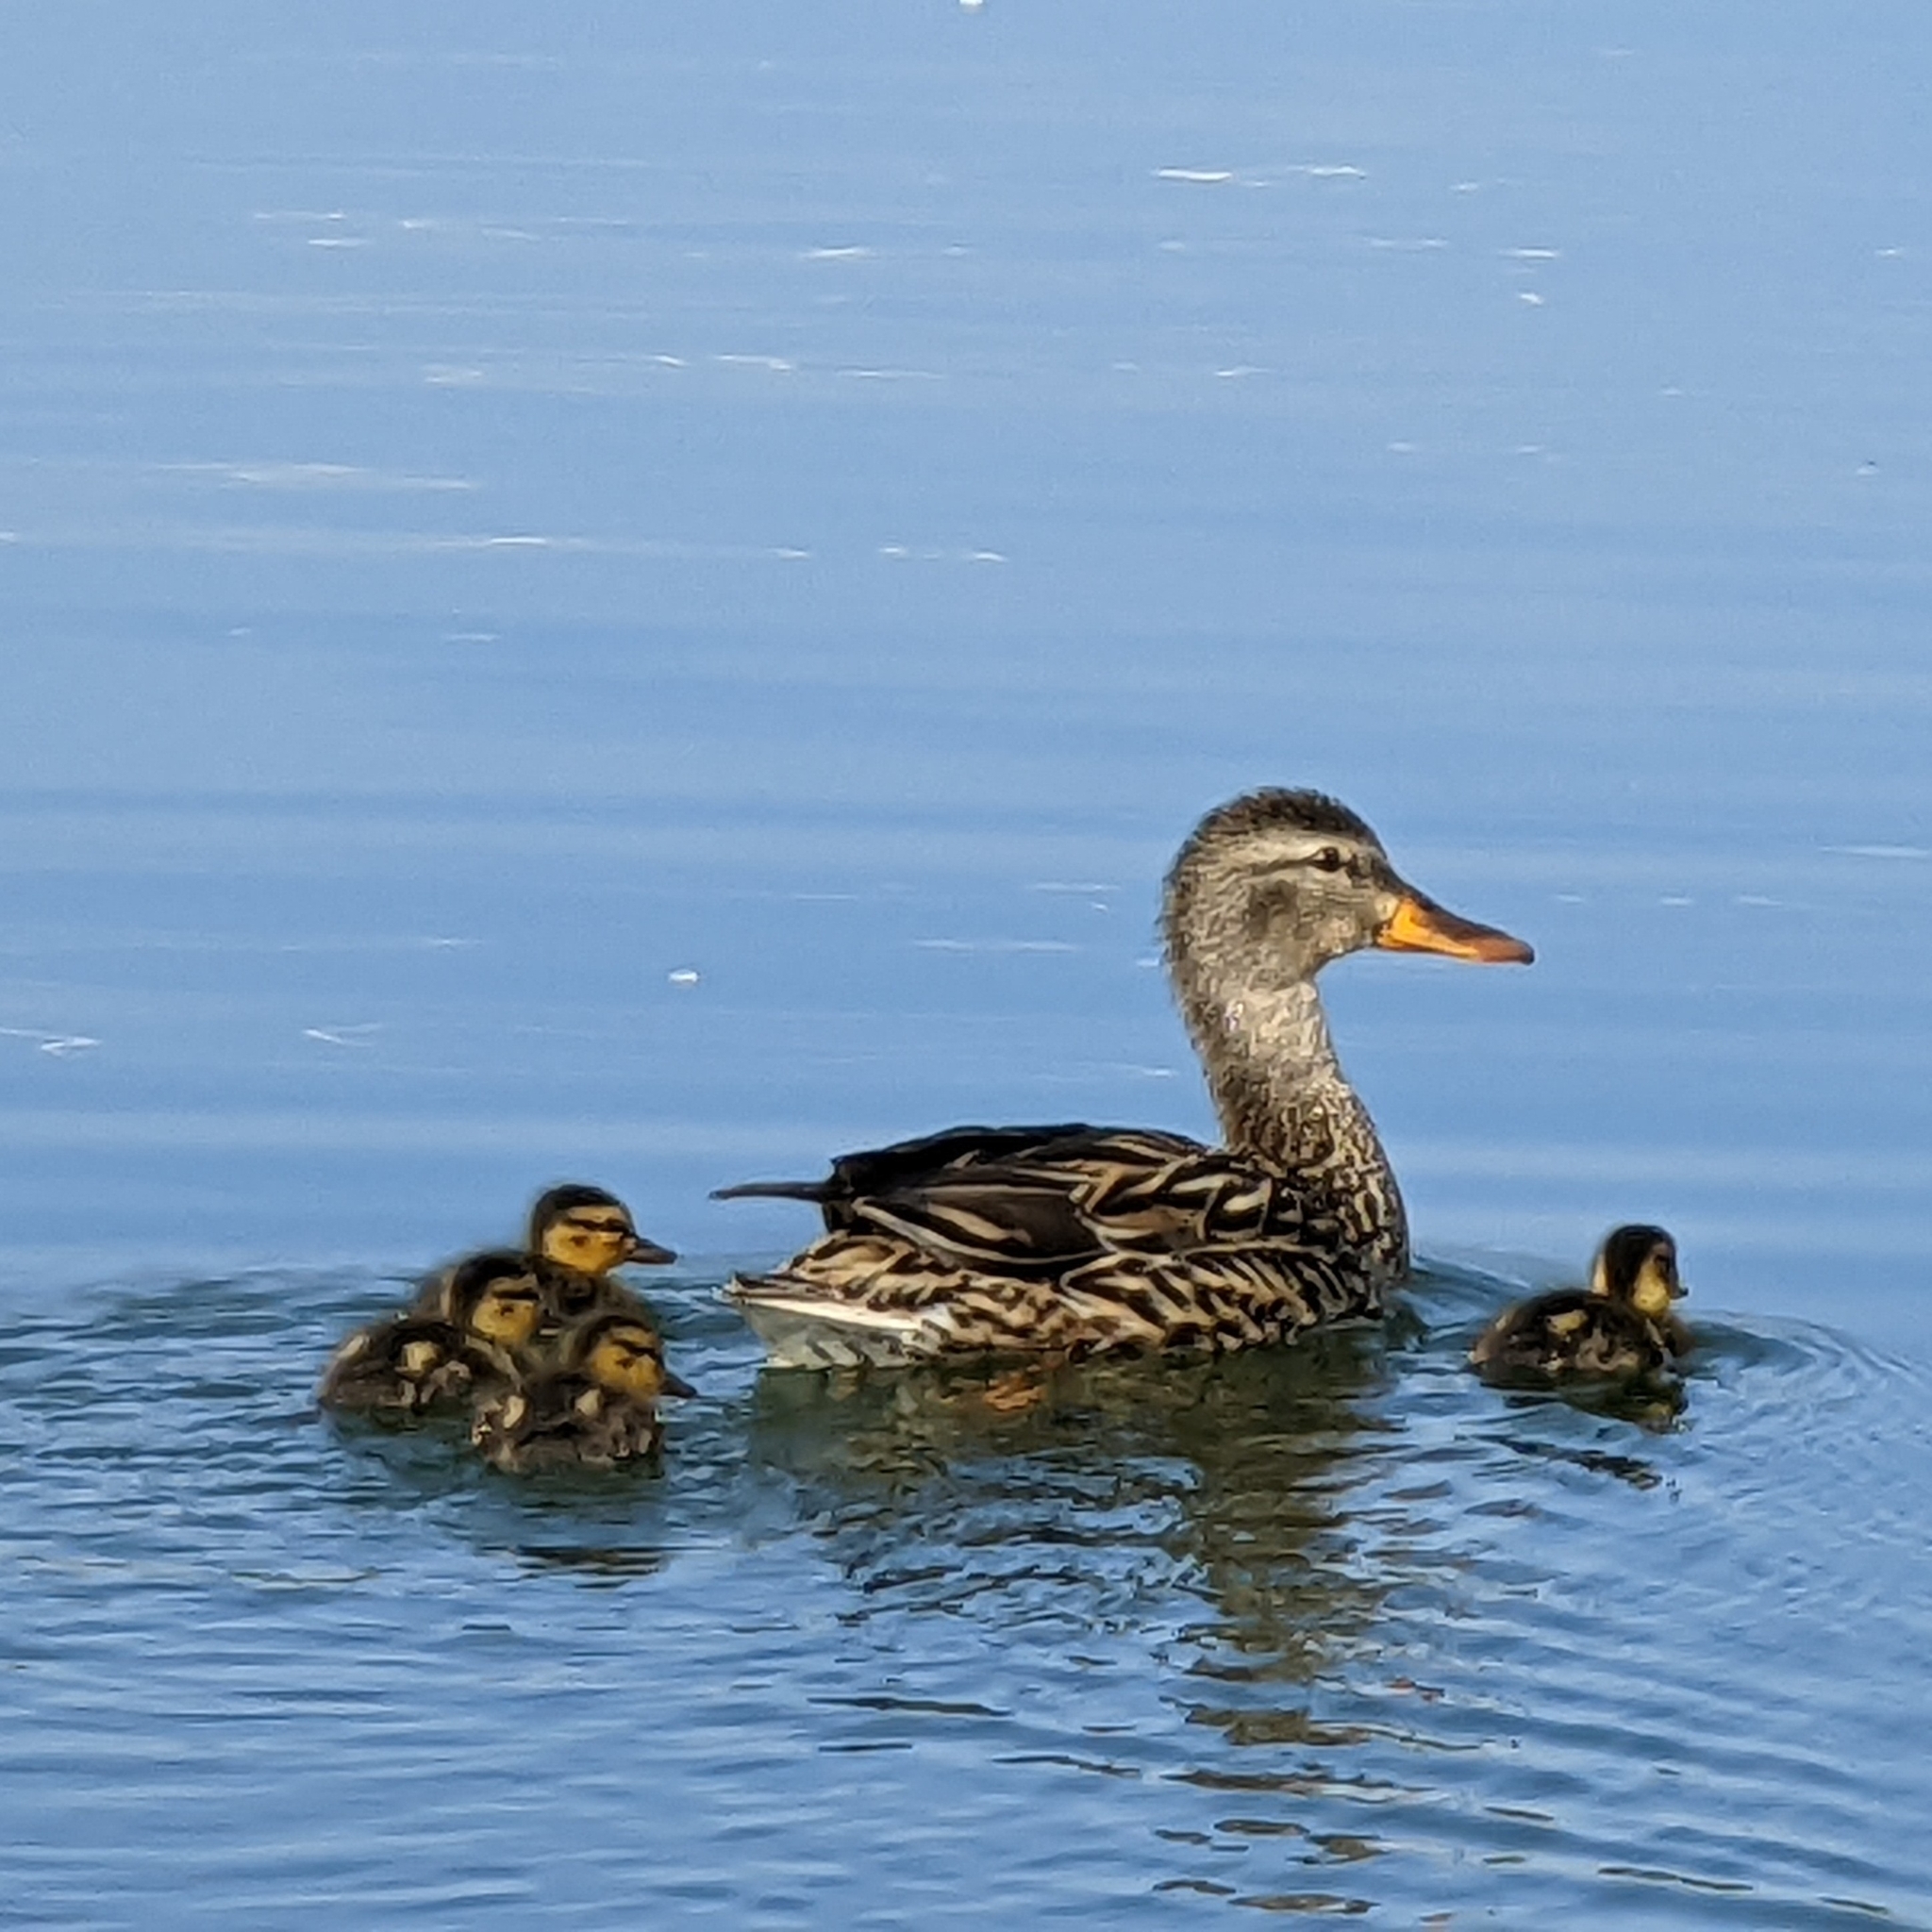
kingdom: Animalia
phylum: Chordata
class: Aves
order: Anseriformes
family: Anatidae
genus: Anas
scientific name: Anas platyrhynchos
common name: Mallard
